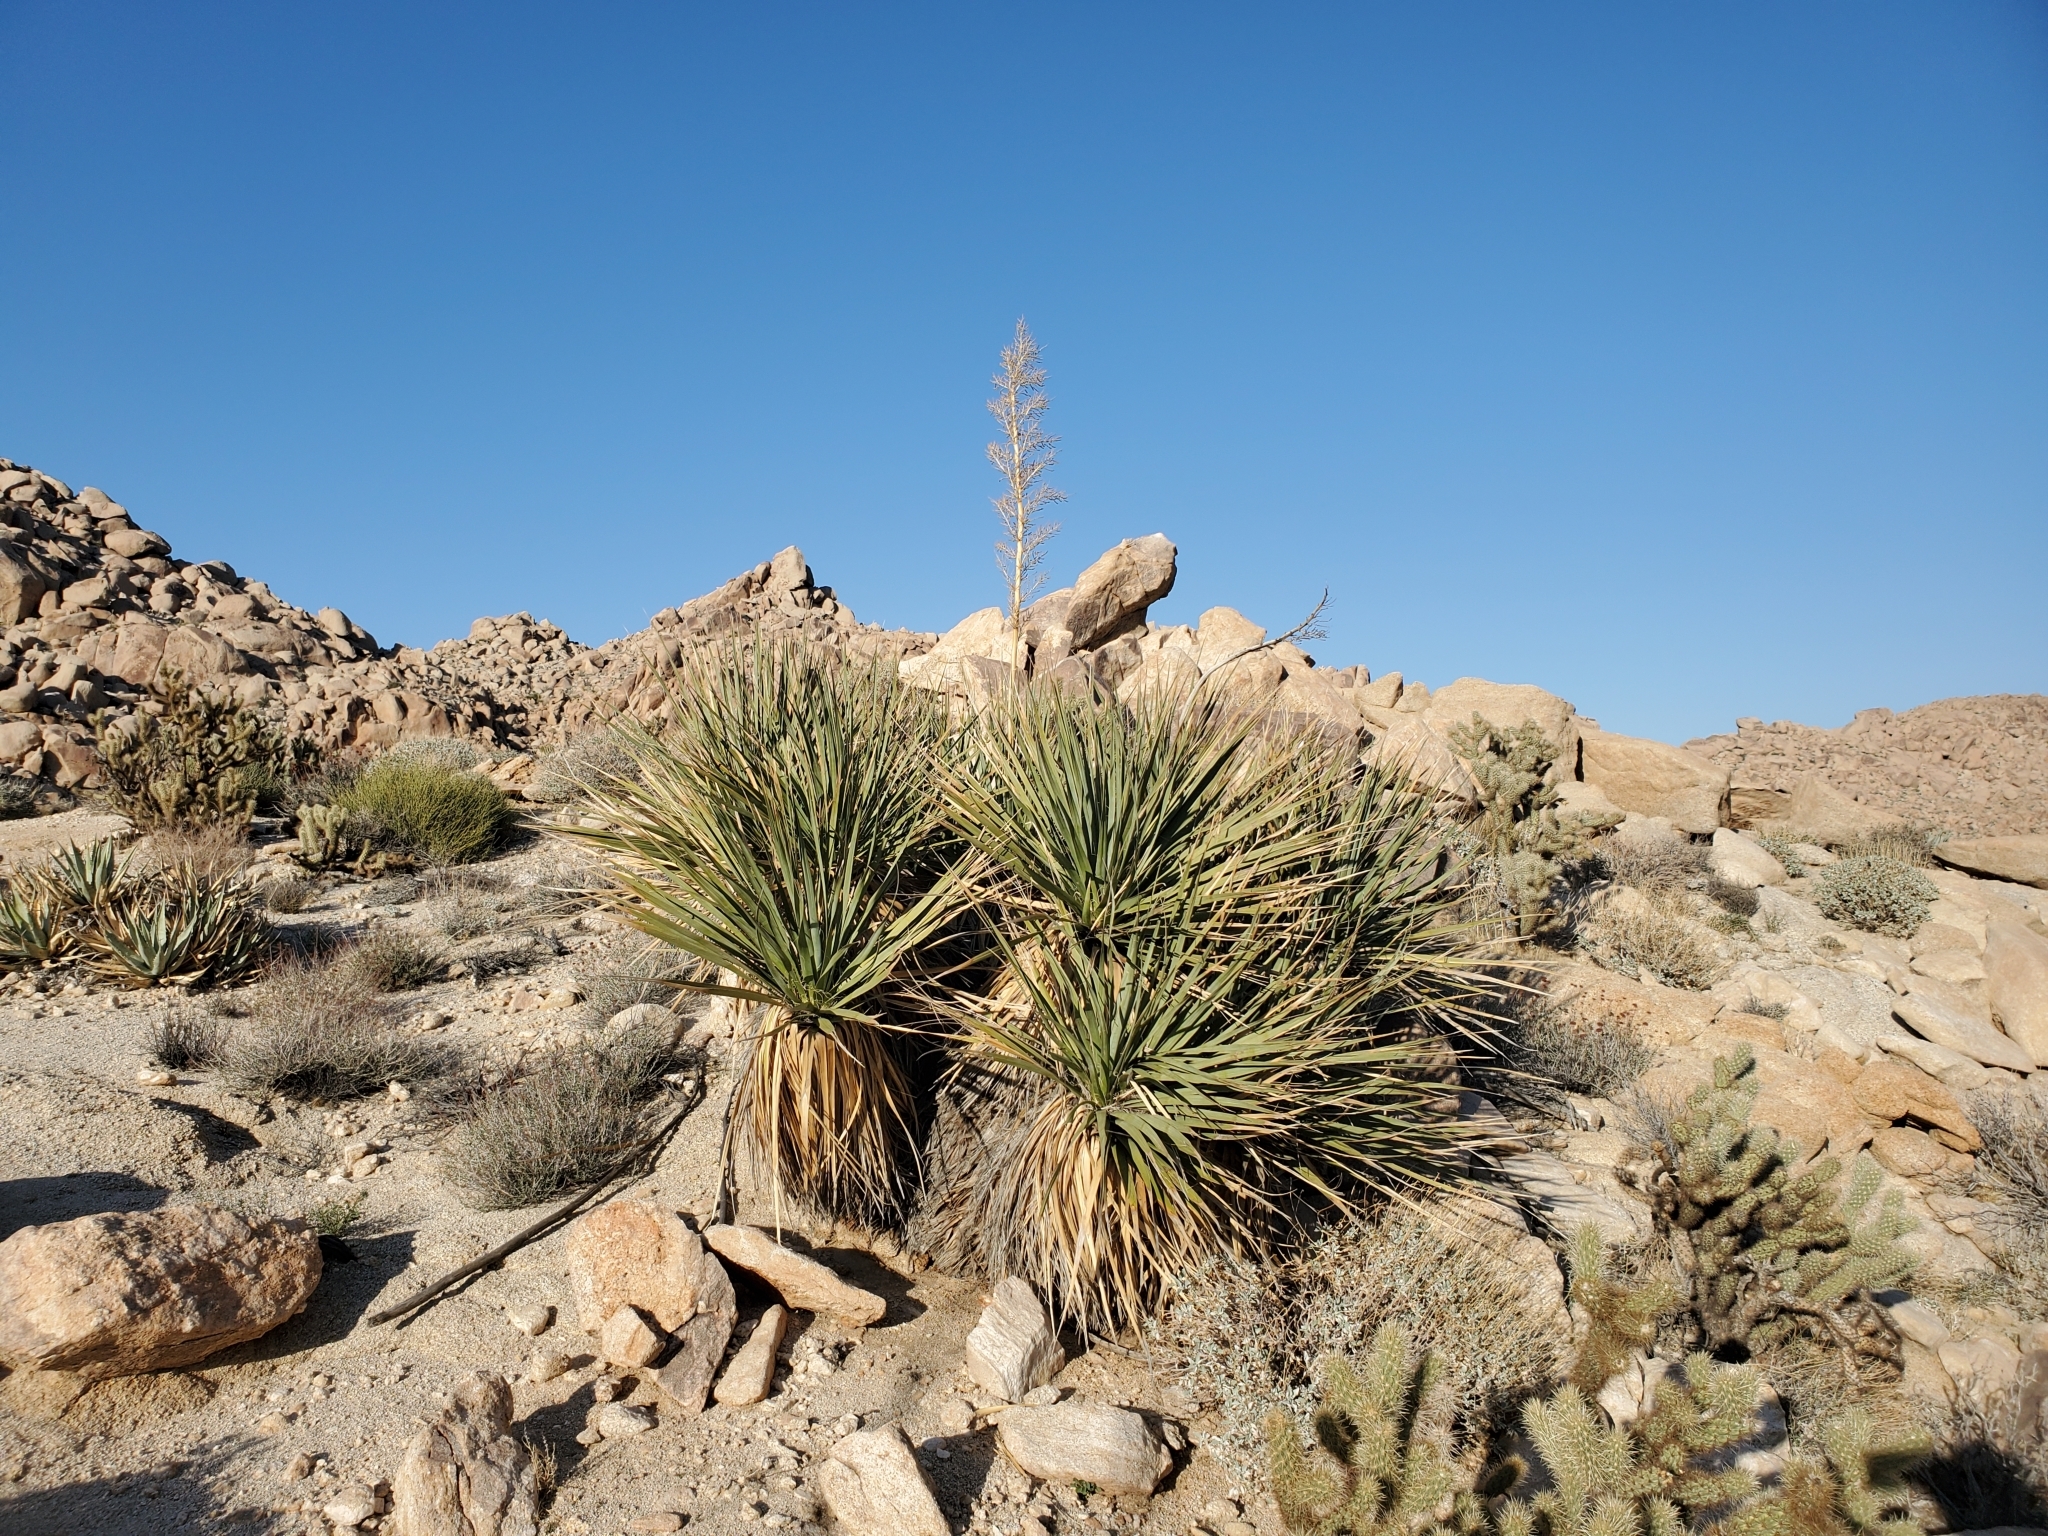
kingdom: Plantae
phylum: Tracheophyta
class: Liliopsida
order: Asparagales
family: Asparagaceae
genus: Nolina
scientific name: Nolina bigelovii
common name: Bigelow bear-grass
